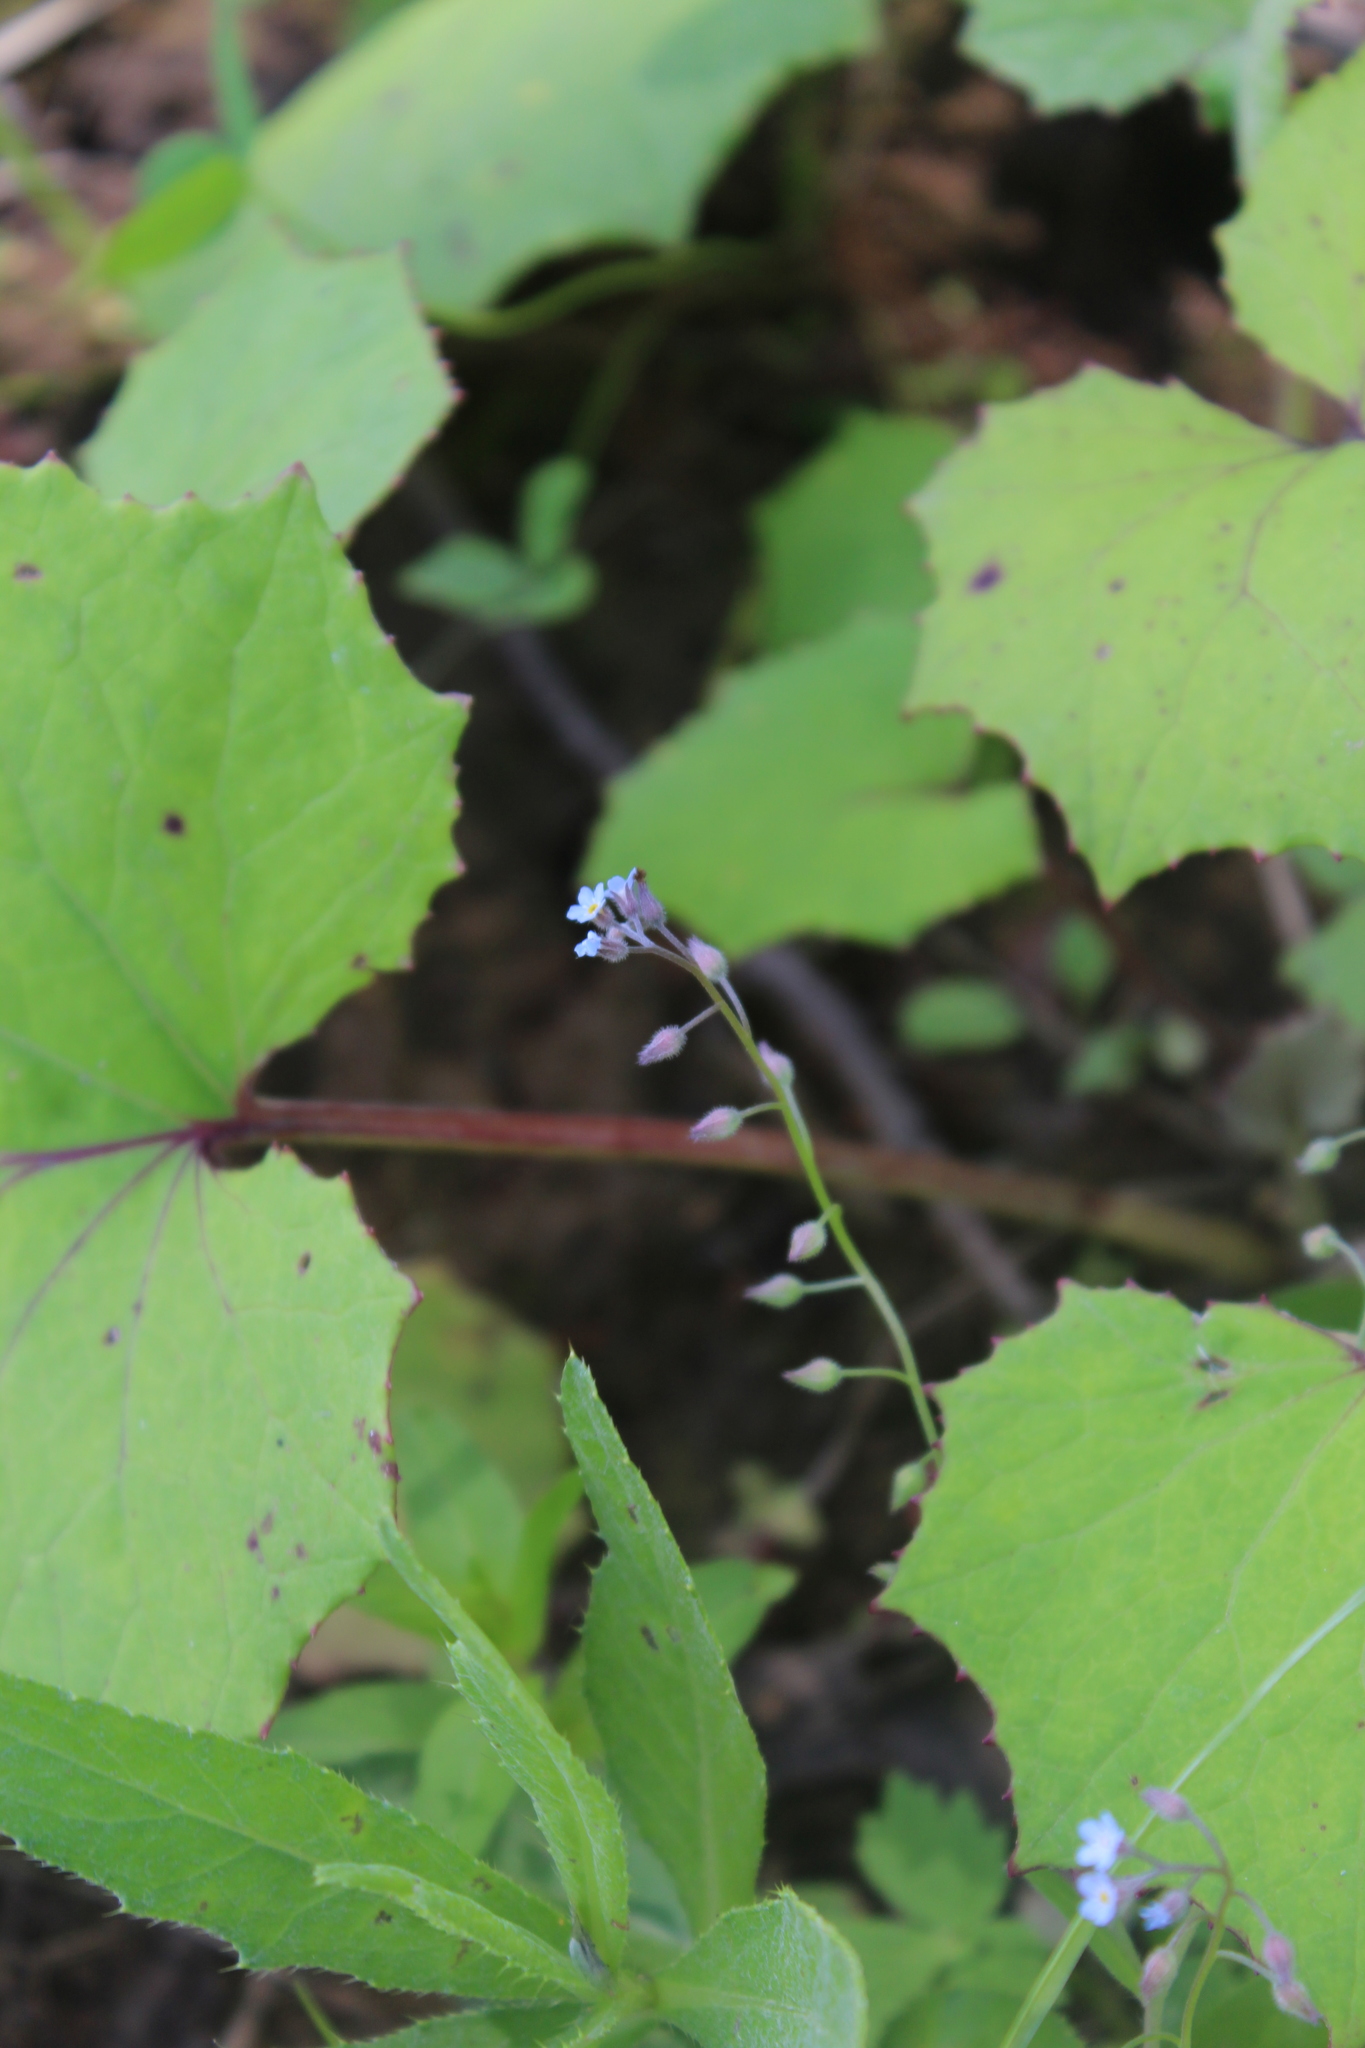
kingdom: Plantae
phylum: Tracheophyta
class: Magnoliopsida
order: Boraginales
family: Boraginaceae
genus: Myosotis
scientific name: Myosotis arvensis
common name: Field forget-me-not
